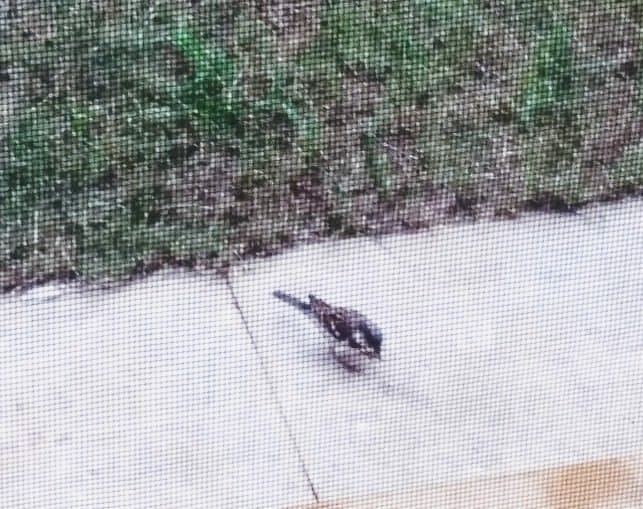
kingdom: Animalia
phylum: Chordata
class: Aves
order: Passeriformes
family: Passeridae
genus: Passer
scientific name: Passer domesticus
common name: House sparrow
